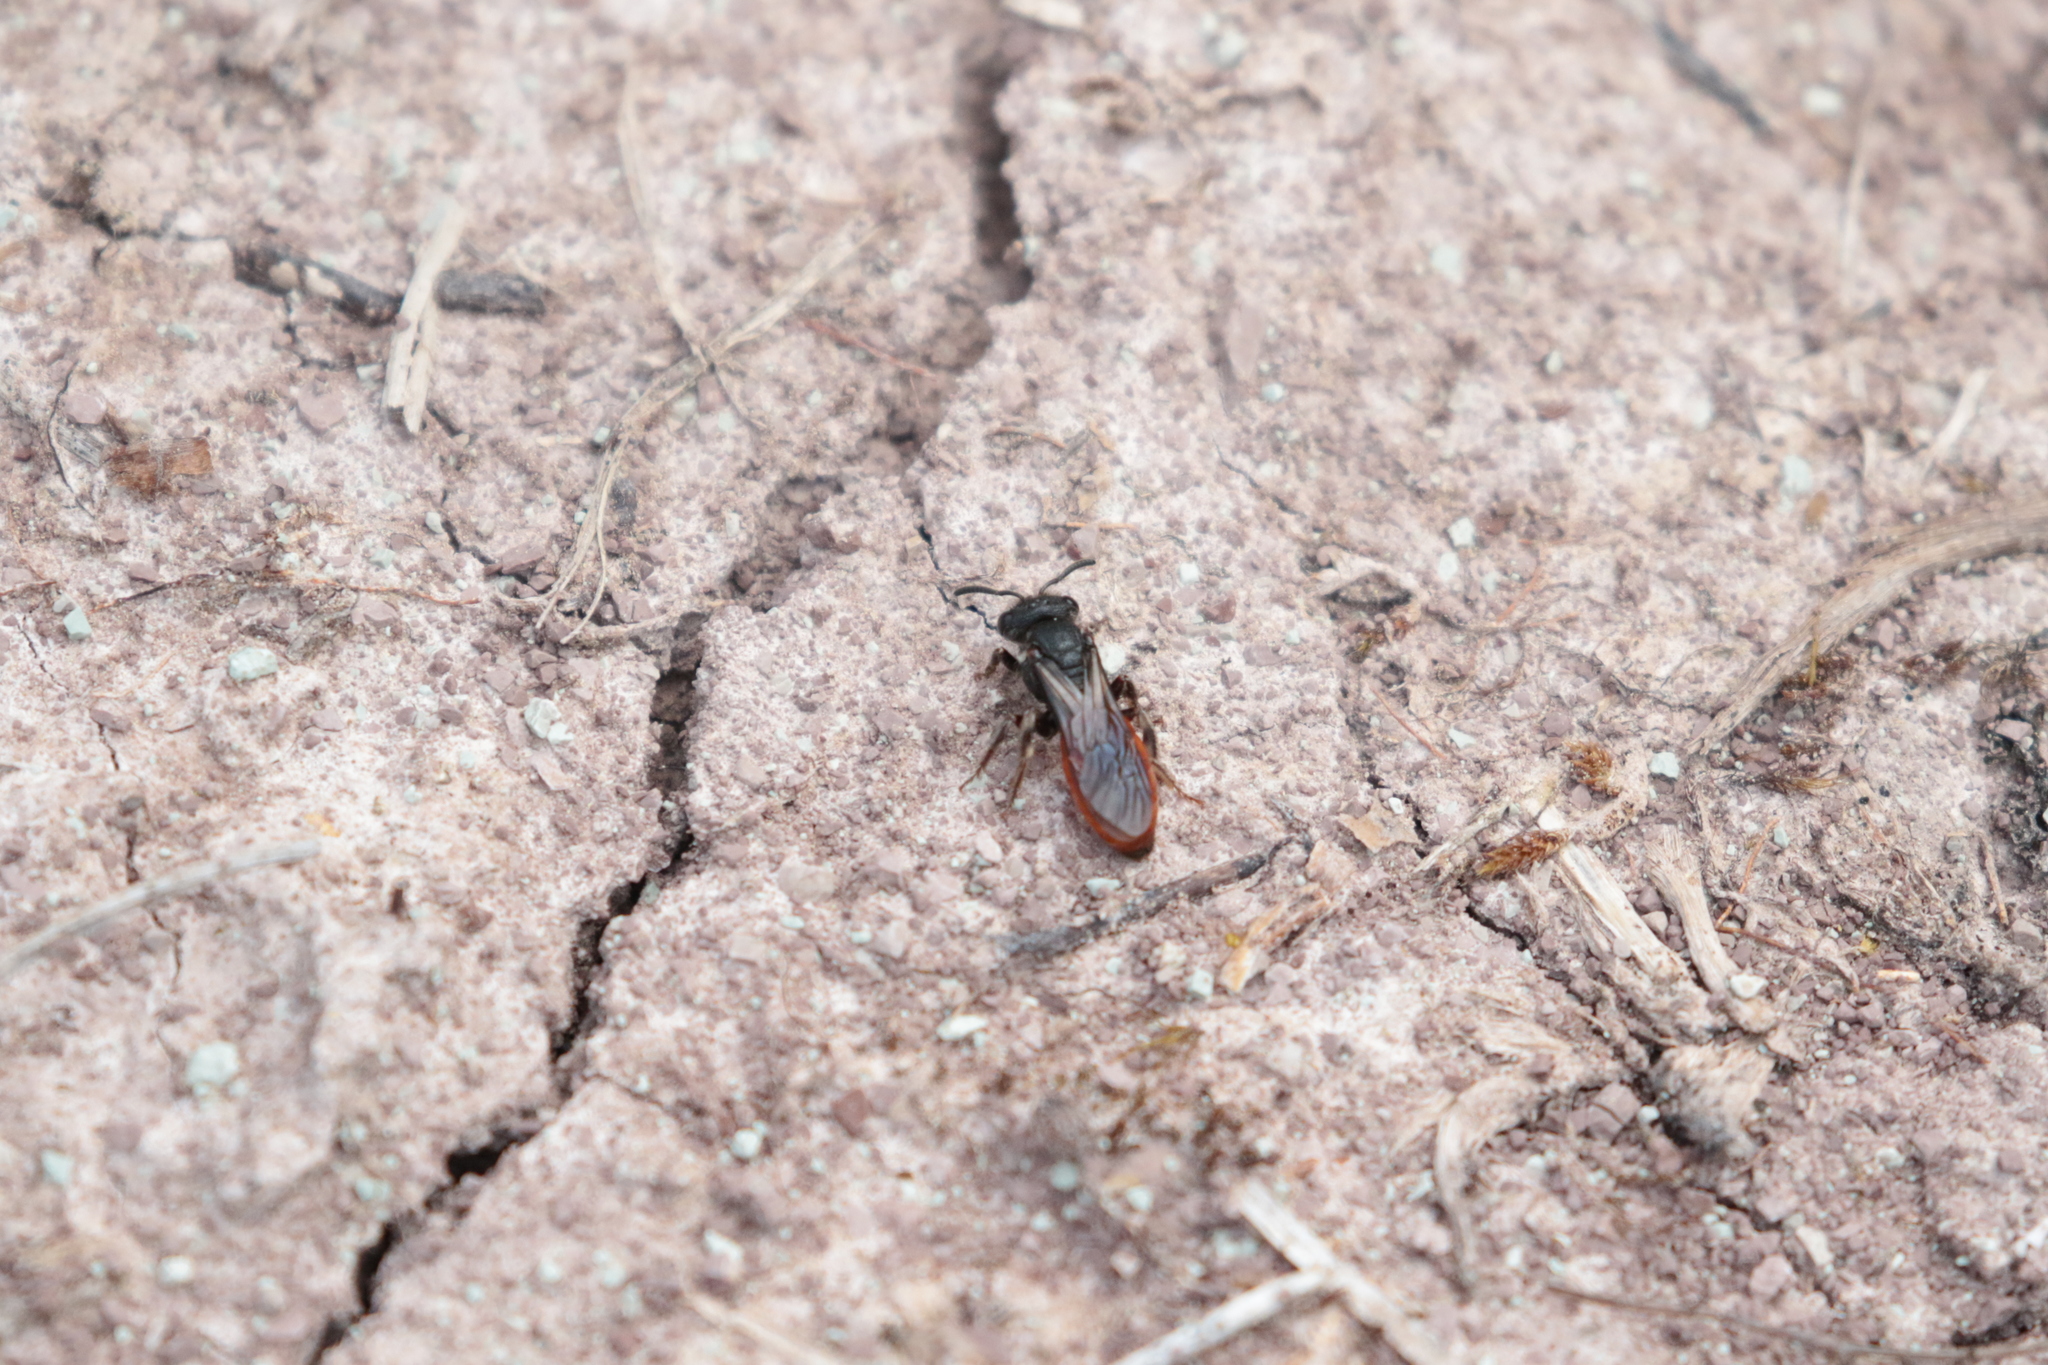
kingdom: Animalia
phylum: Arthropoda
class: Insecta
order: Hymenoptera
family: Halictidae
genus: Sphecodes
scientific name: Sphecodes albilabris
